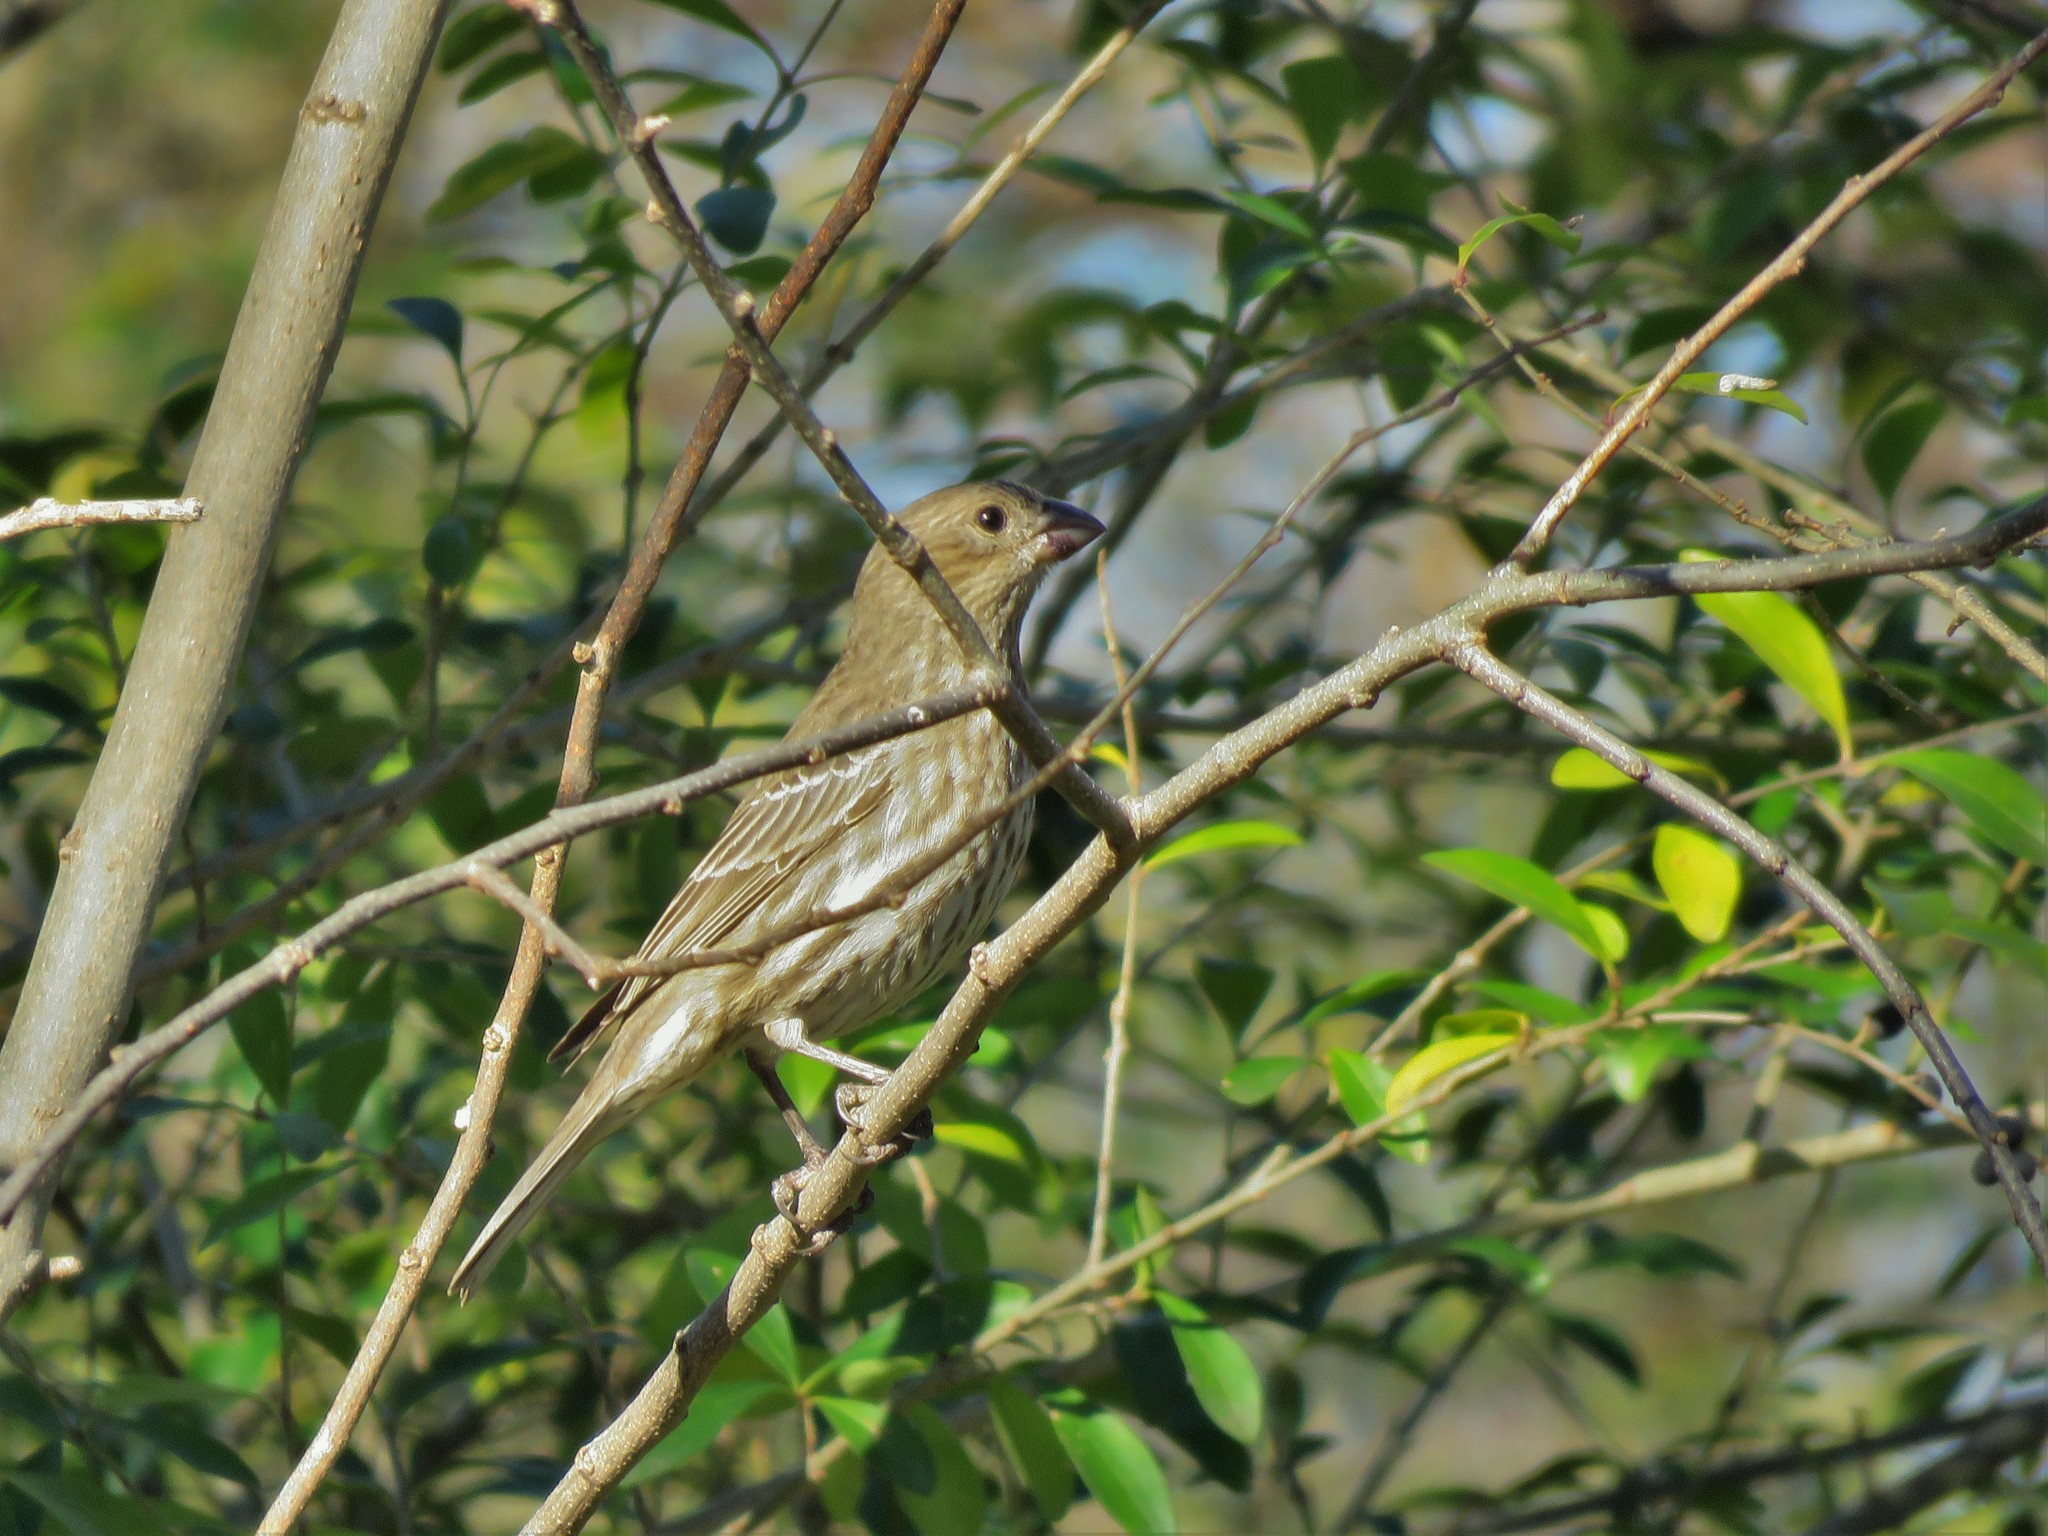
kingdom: Animalia
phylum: Chordata
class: Aves
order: Passeriformes
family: Fringillidae
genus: Haemorhous
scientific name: Haemorhous mexicanus
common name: House finch
